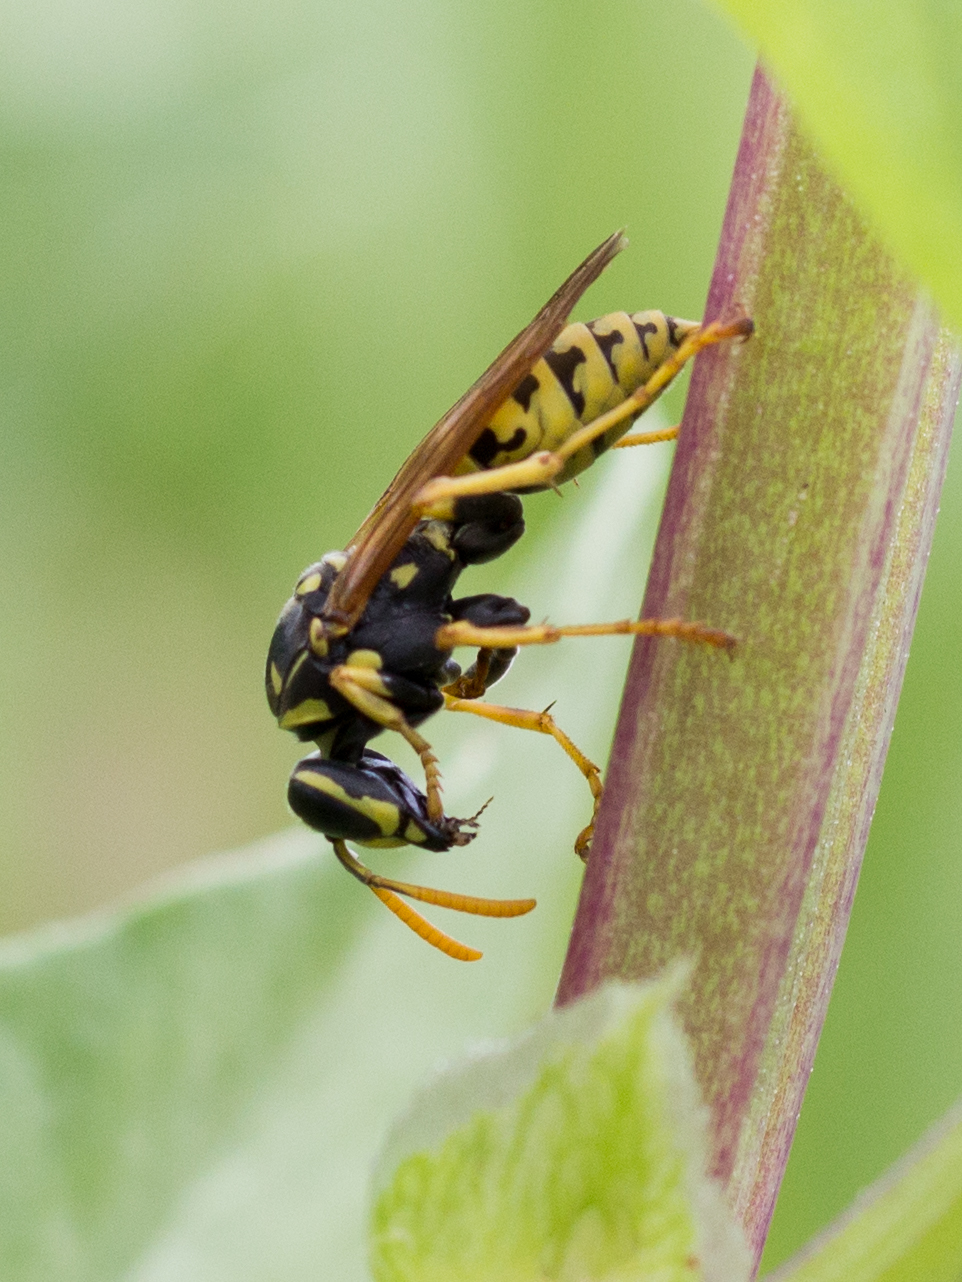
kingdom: Animalia
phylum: Arthropoda
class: Insecta
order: Hymenoptera
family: Eumenidae
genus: Polistes
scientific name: Polistes dominula
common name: Paper wasp
